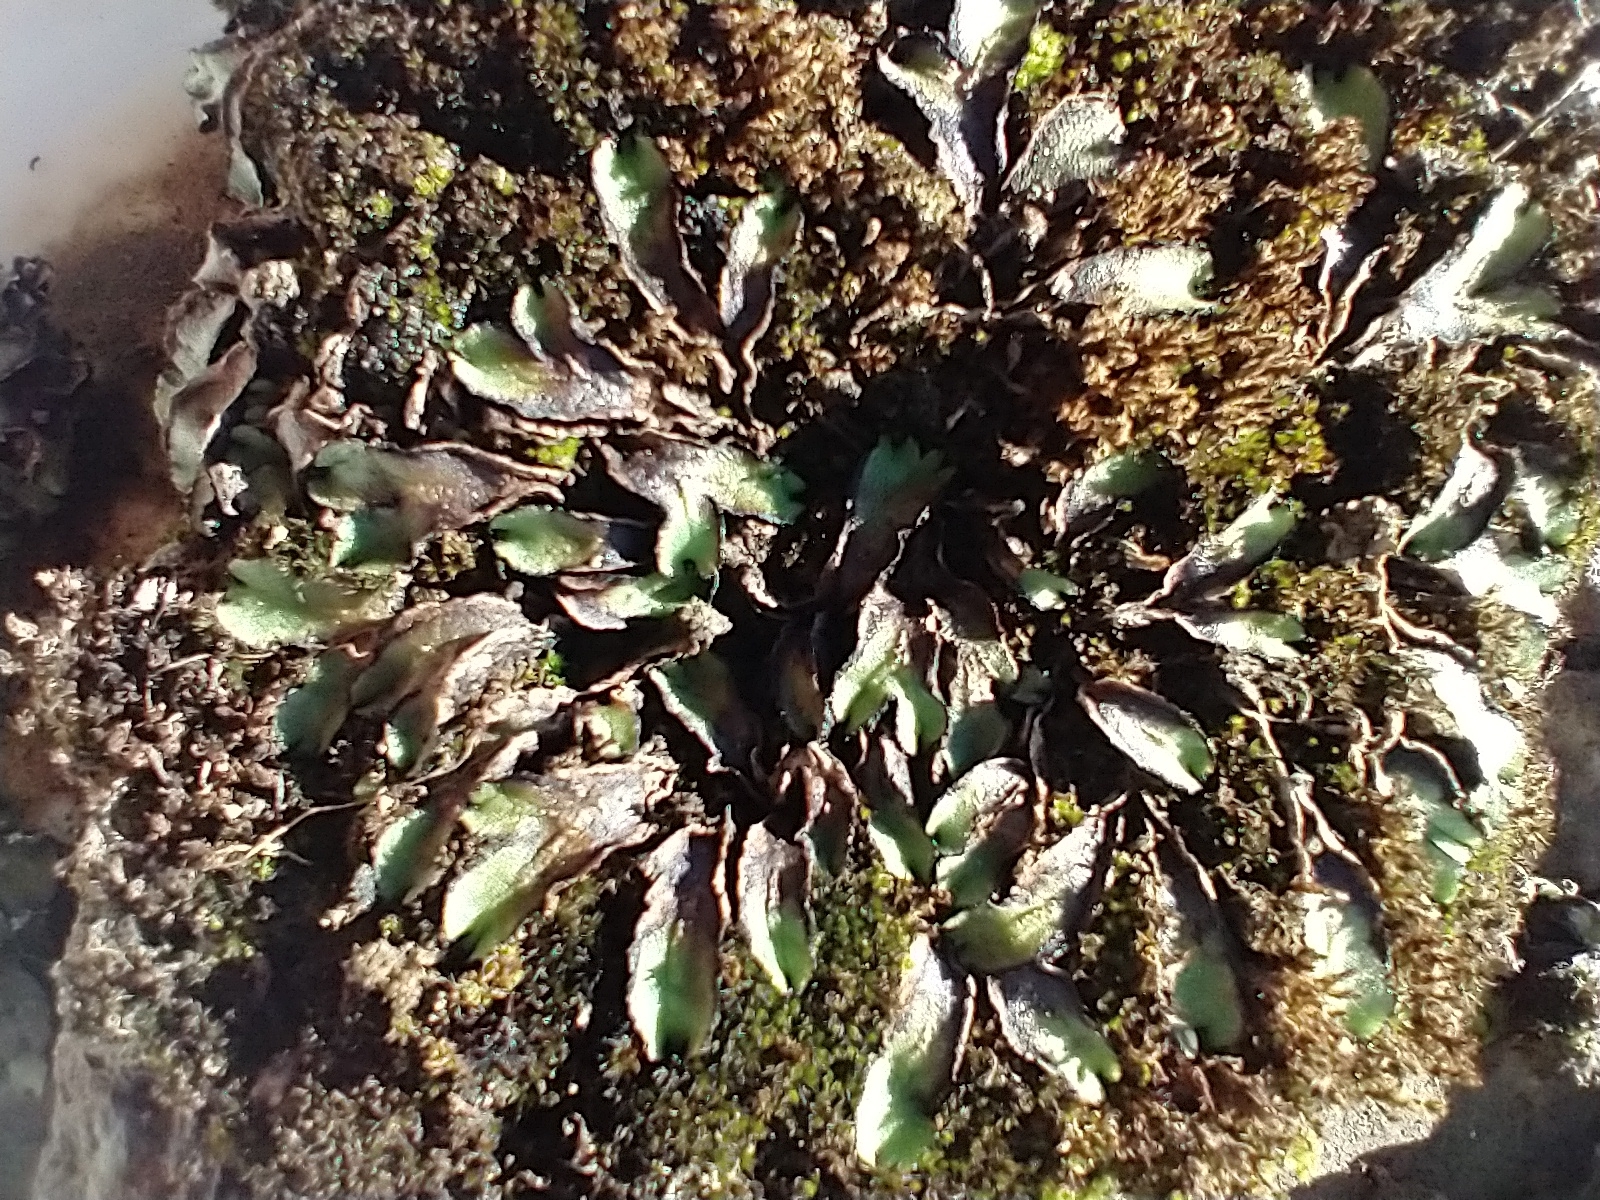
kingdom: Plantae
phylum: Marchantiophyta
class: Marchantiopsida
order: Marchantiales
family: Aytoniaceae
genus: Asterella
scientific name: Asterella californica
